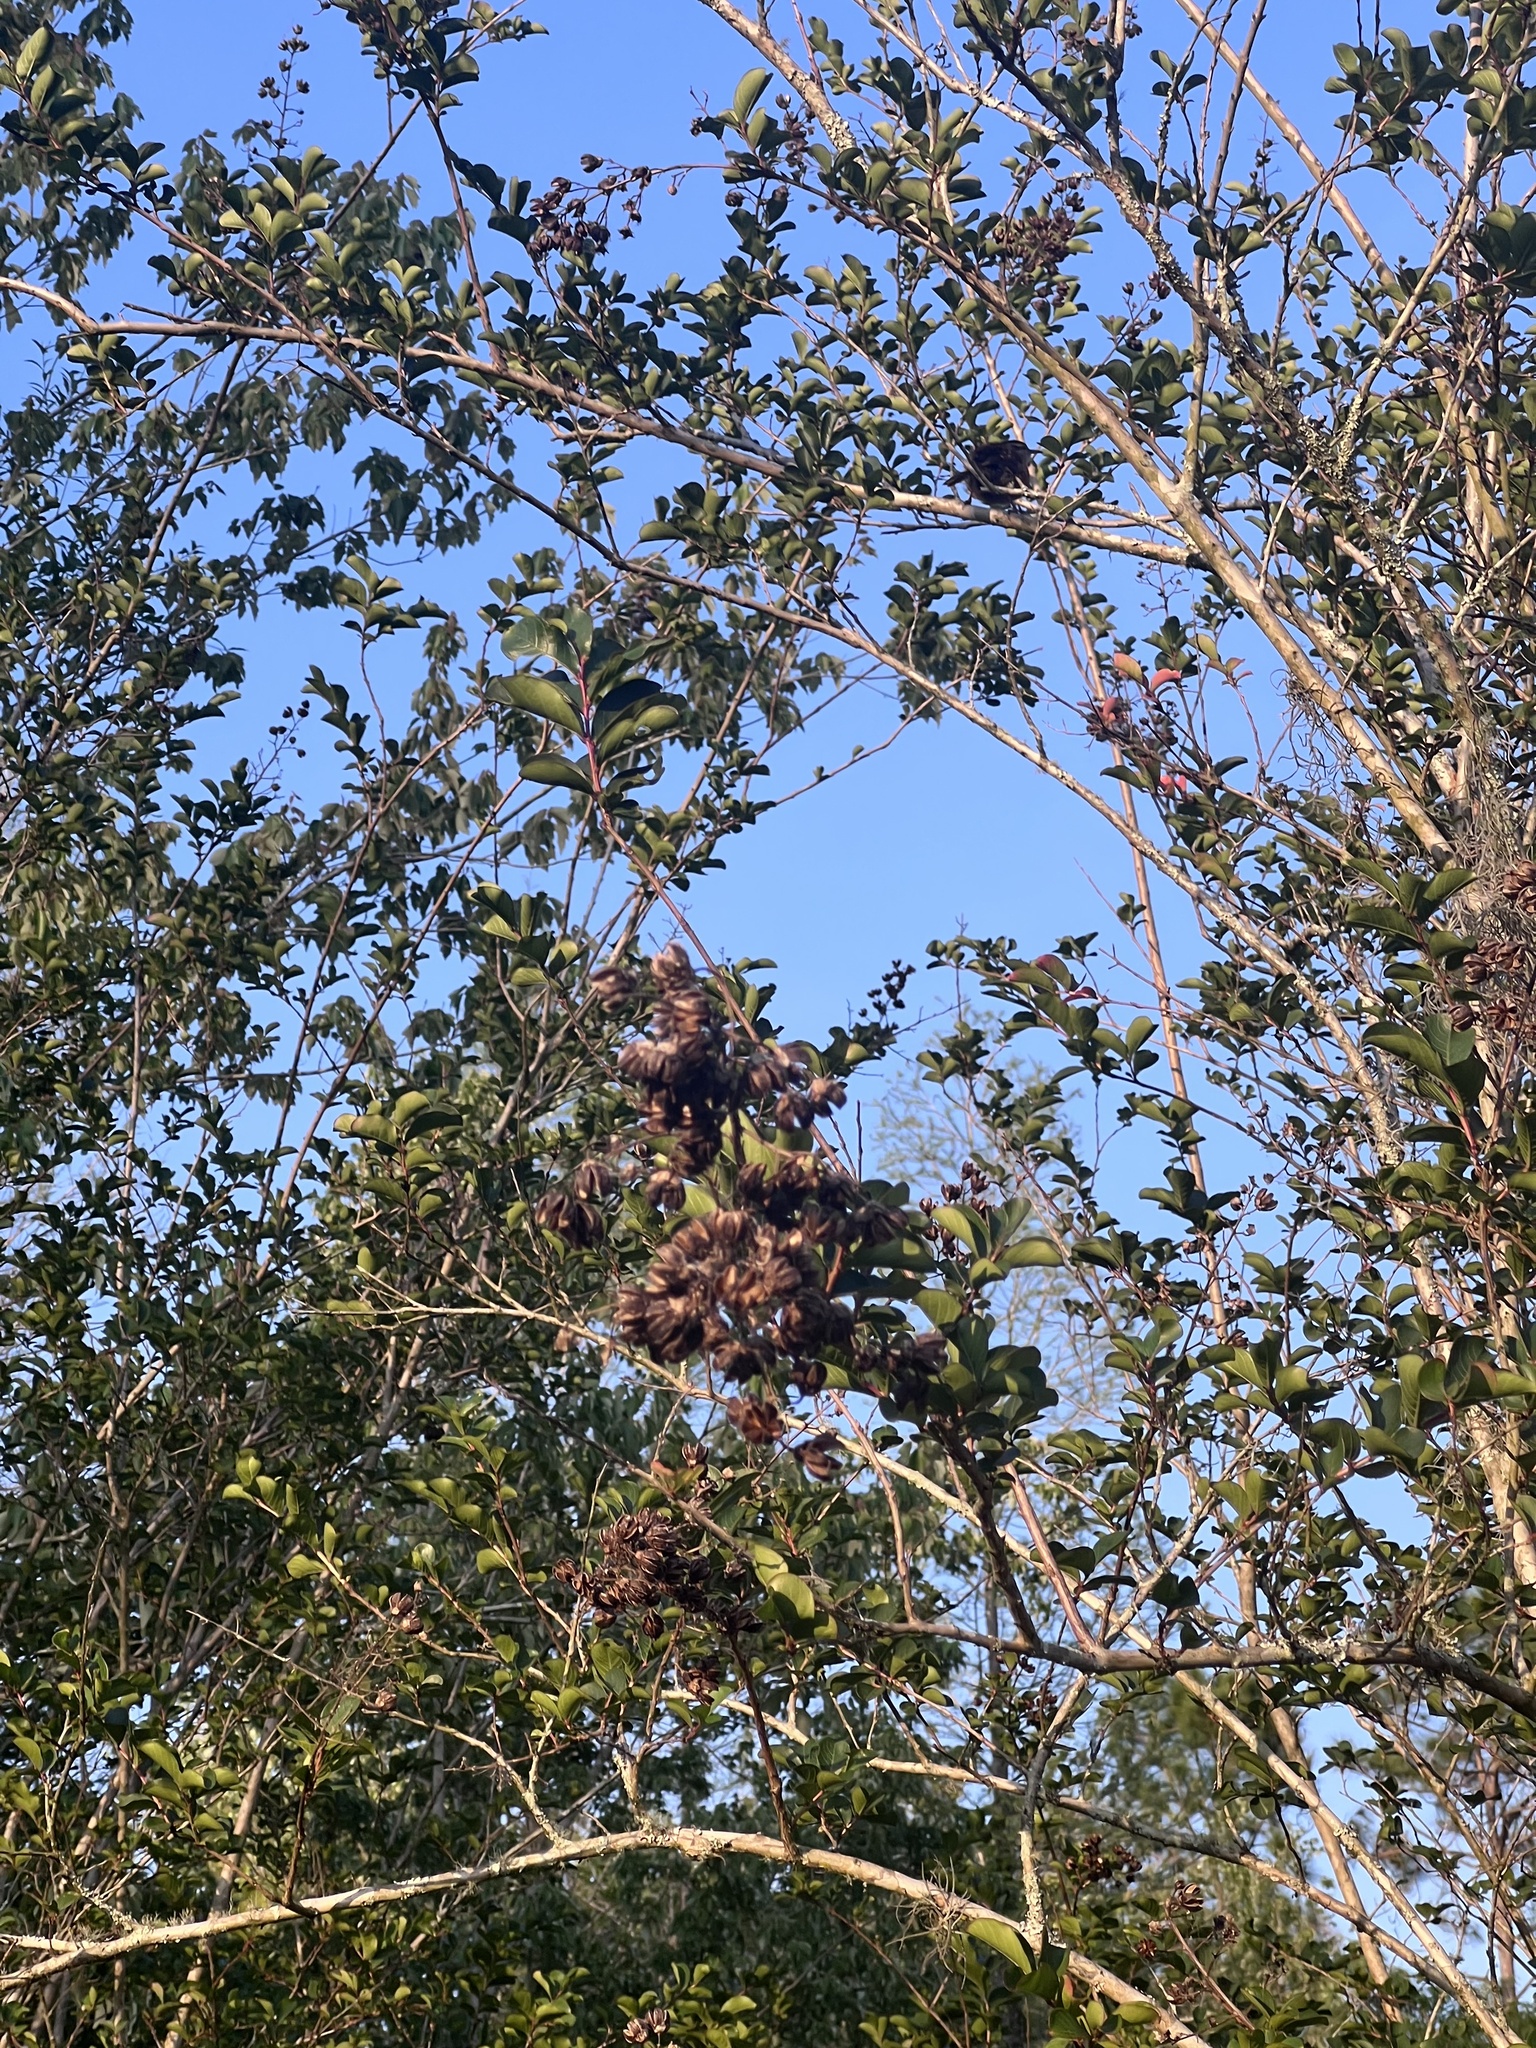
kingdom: Animalia
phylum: Chordata
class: Aves
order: Passeriformes
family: Troglodytidae
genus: Thryothorus
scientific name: Thryothorus ludovicianus
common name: Carolina wren
